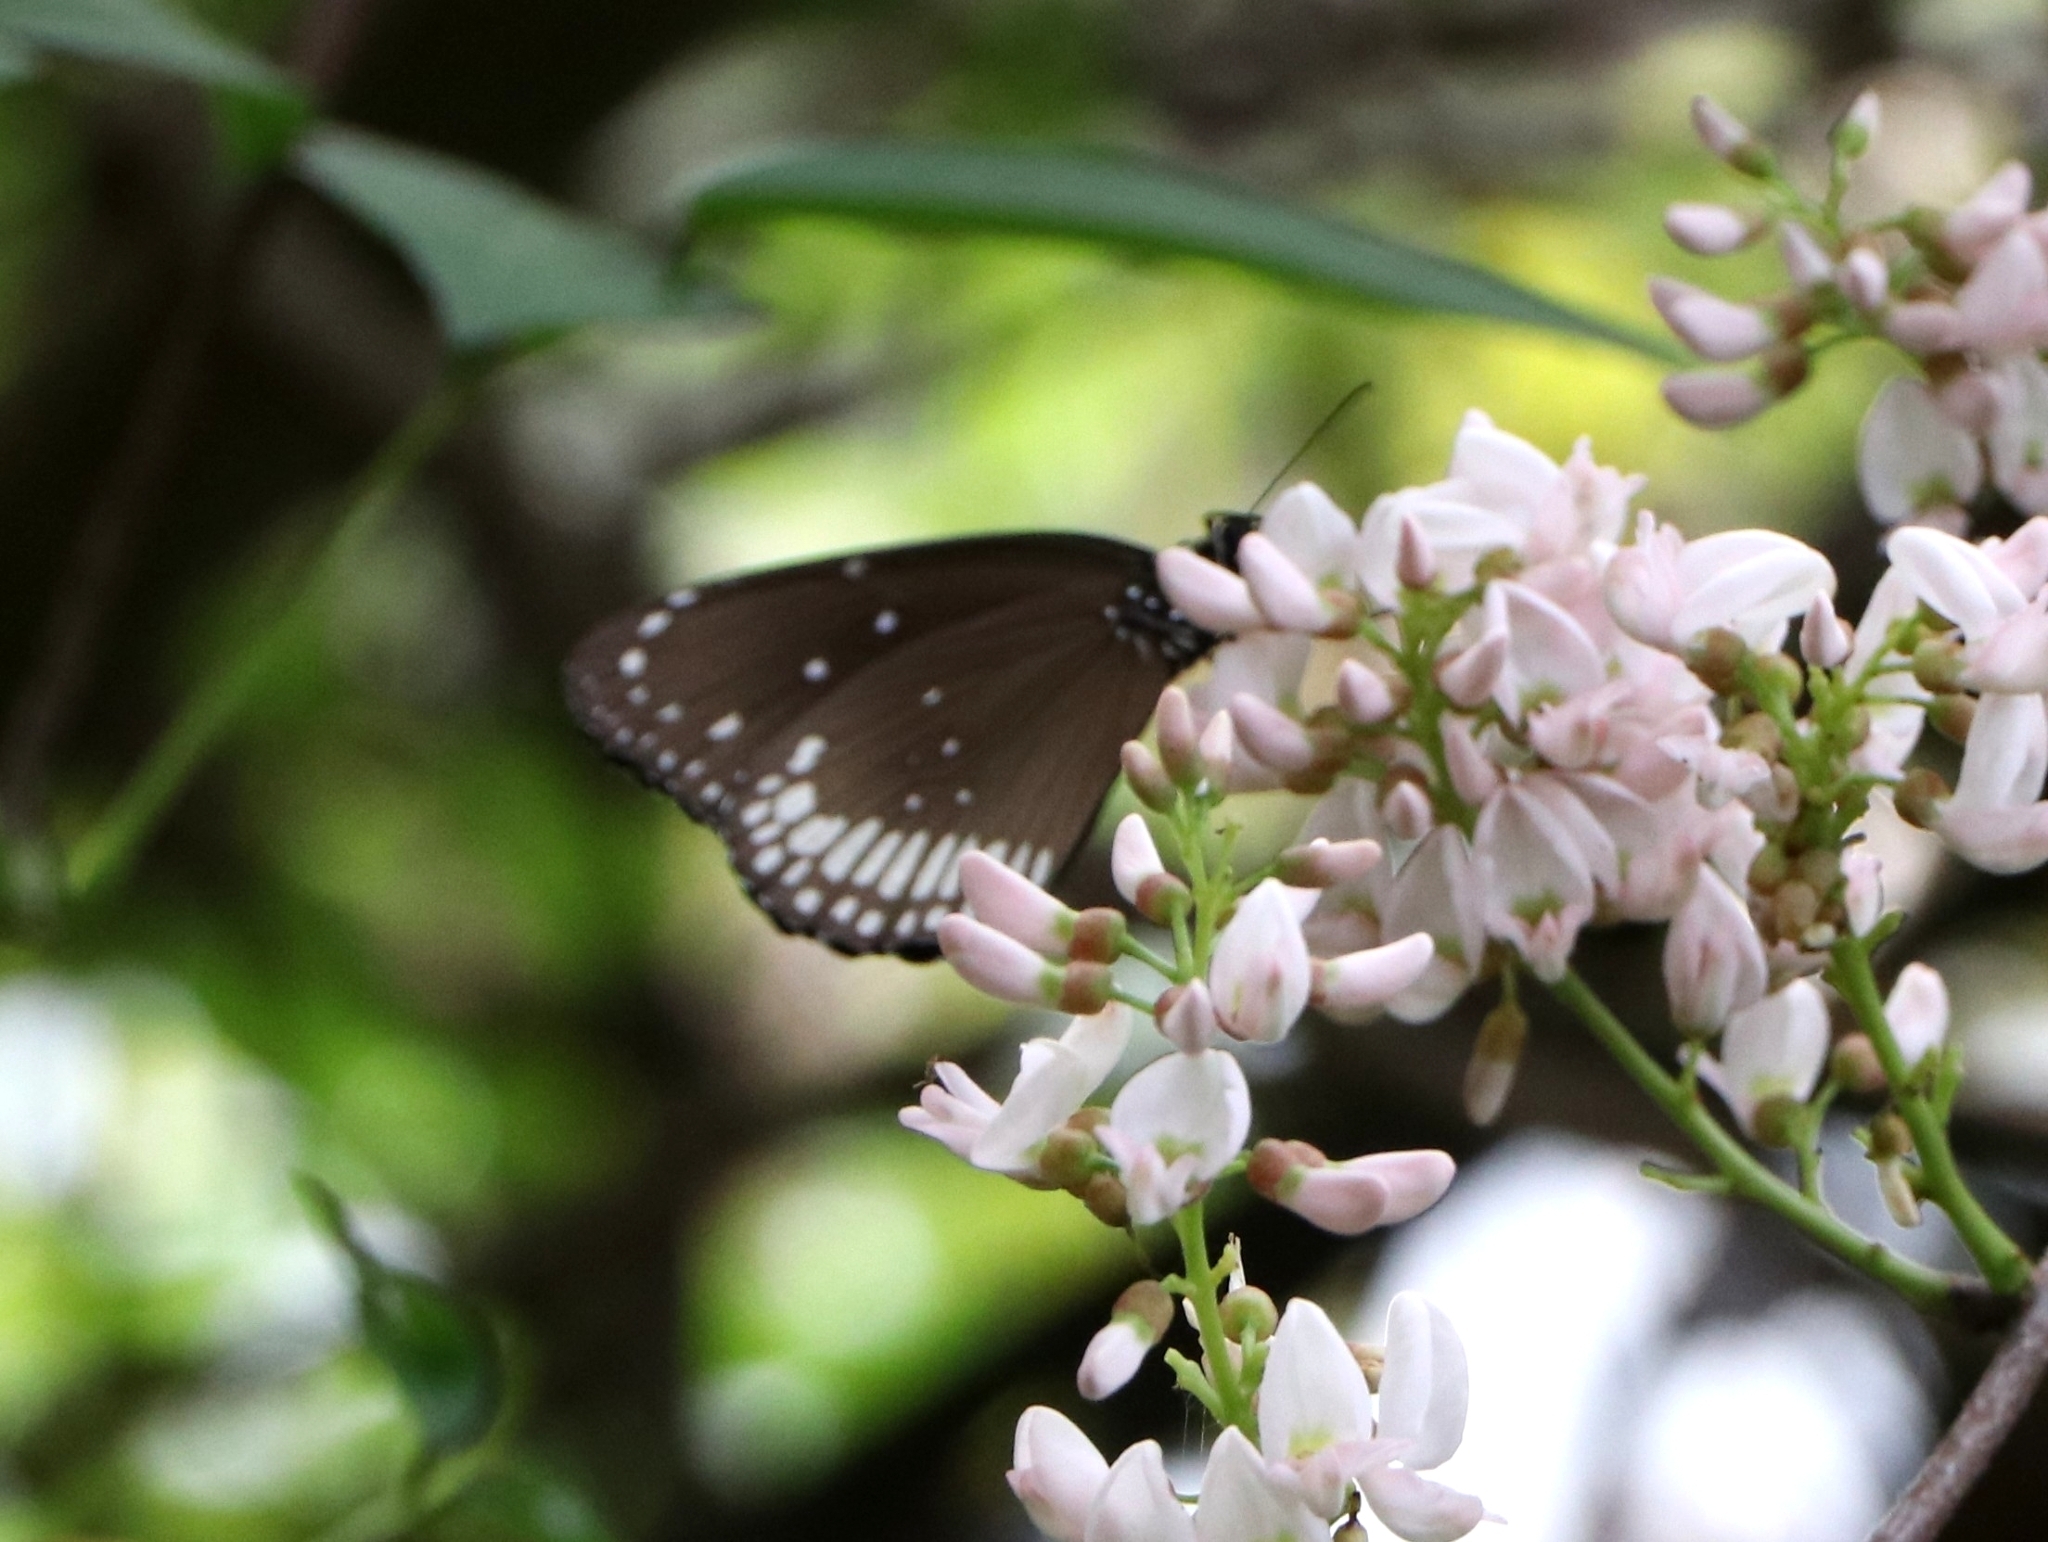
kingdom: Animalia
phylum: Arthropoda
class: Insecta
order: Lepidoptera
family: Nymphalidae
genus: Euploea
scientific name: Euploea core
